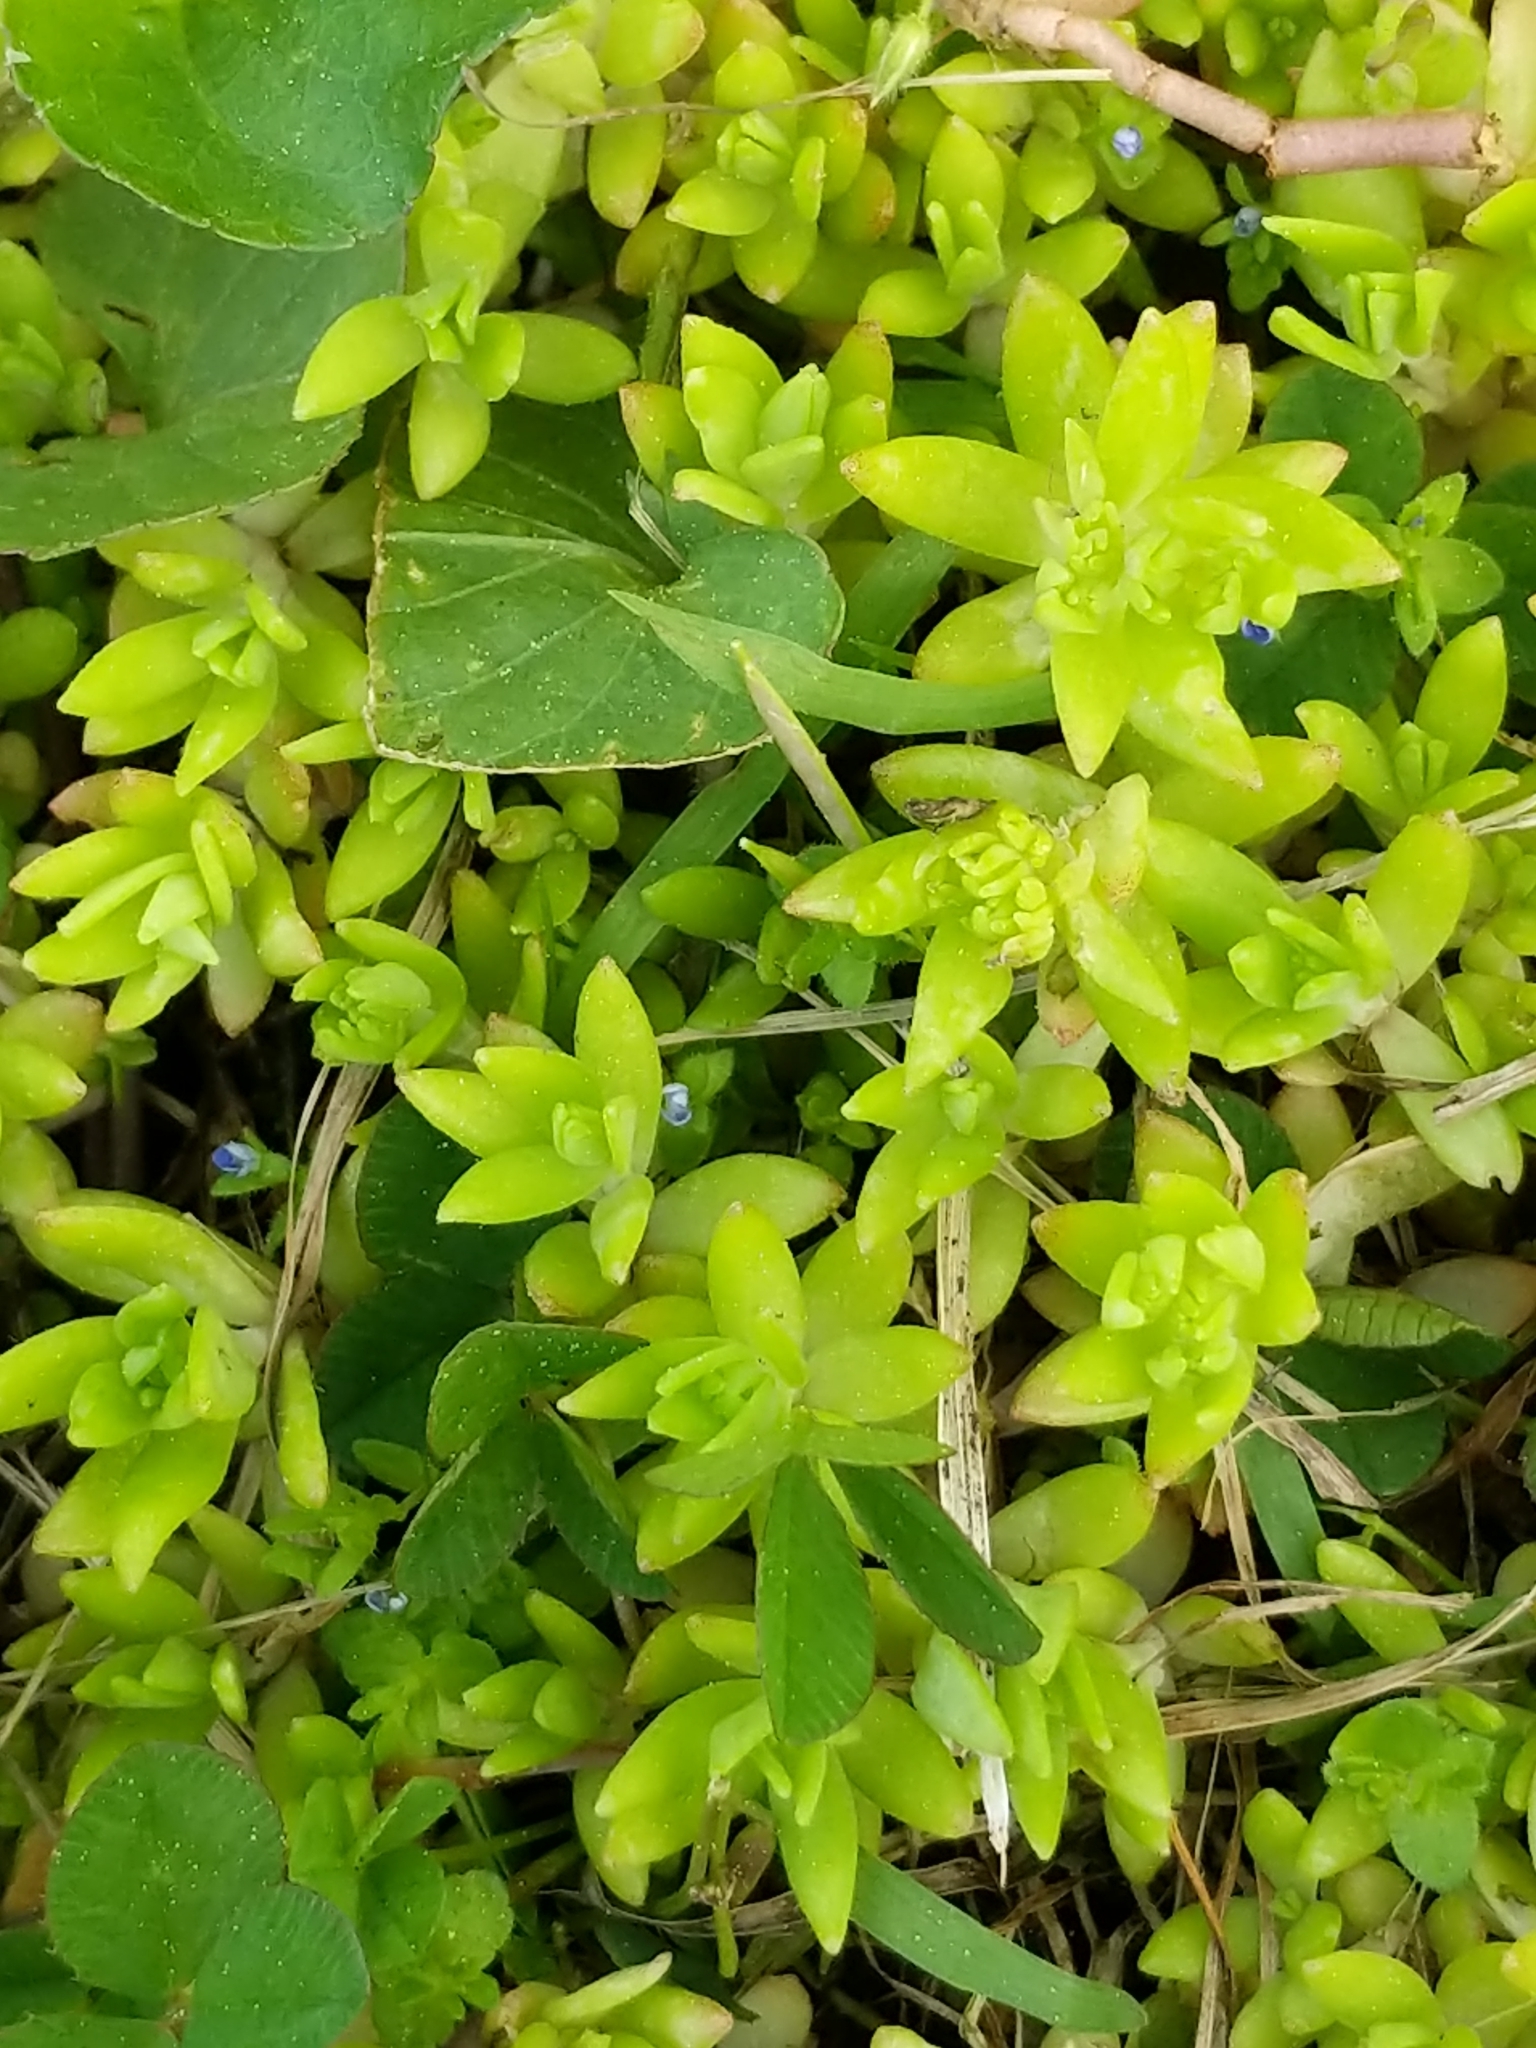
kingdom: Plantae
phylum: Tracheophyta
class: Magnoliopsida
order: Saxifragales
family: Crassulaceae
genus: Sedum
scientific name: Sedum sarmentosum
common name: Stringy stonecrop
